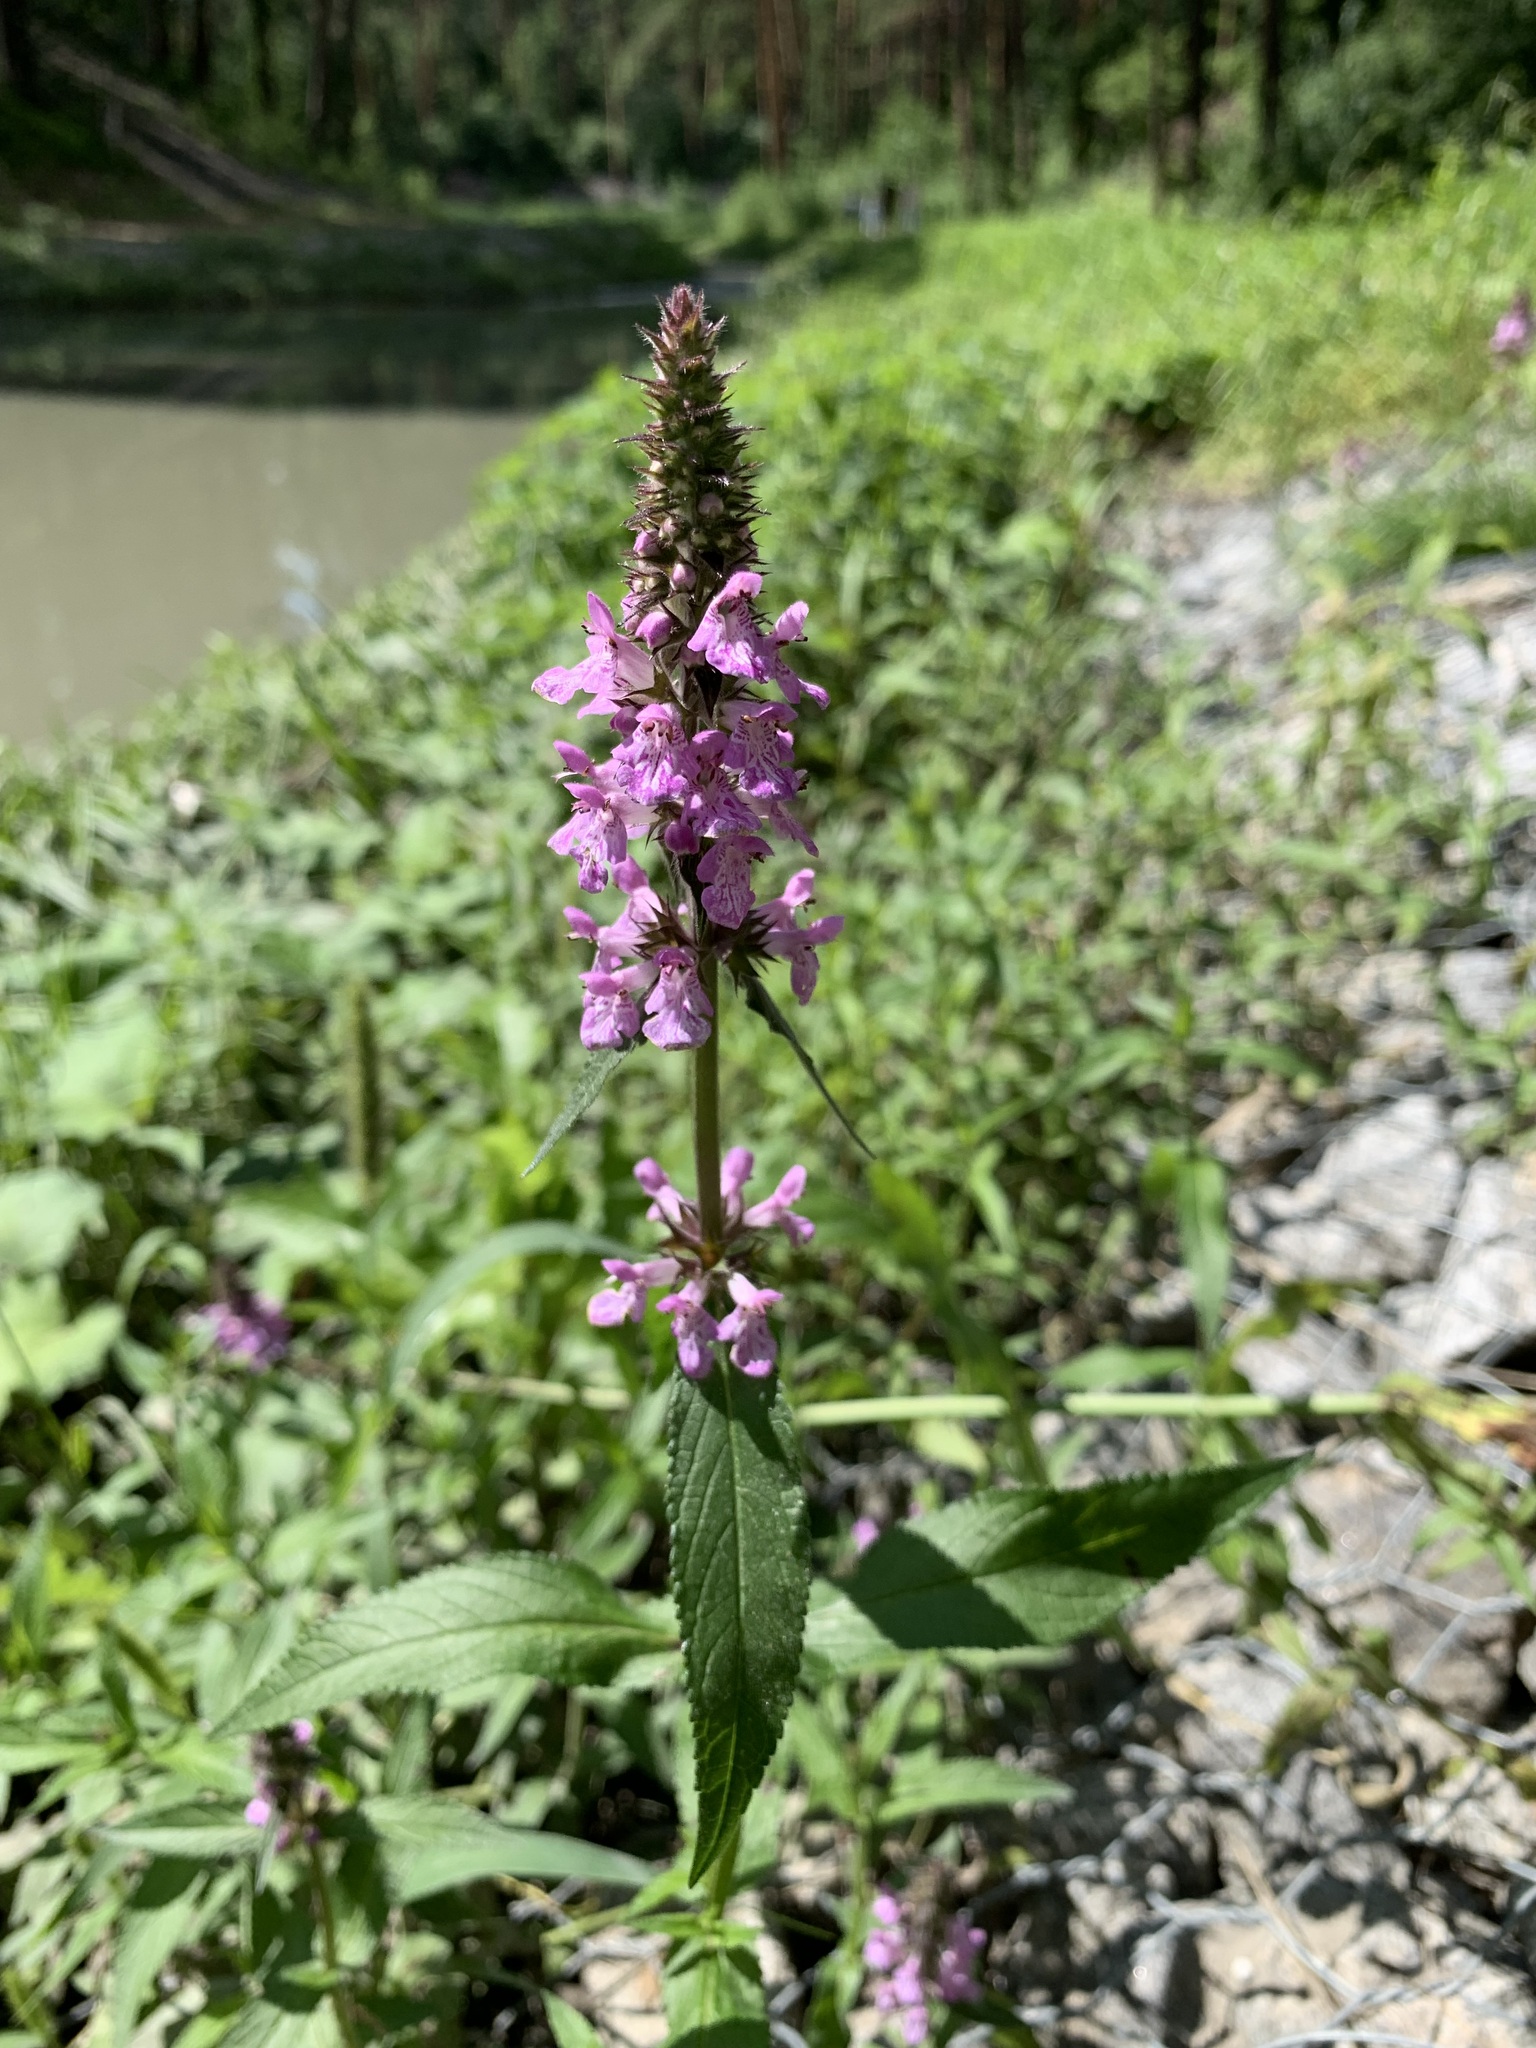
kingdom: Plantae
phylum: Tracheophyta
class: Magnoliopsida
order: Lamiales
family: Lamiaceae
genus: Stachys
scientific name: Stachys palustris
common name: Marsh woundwort
